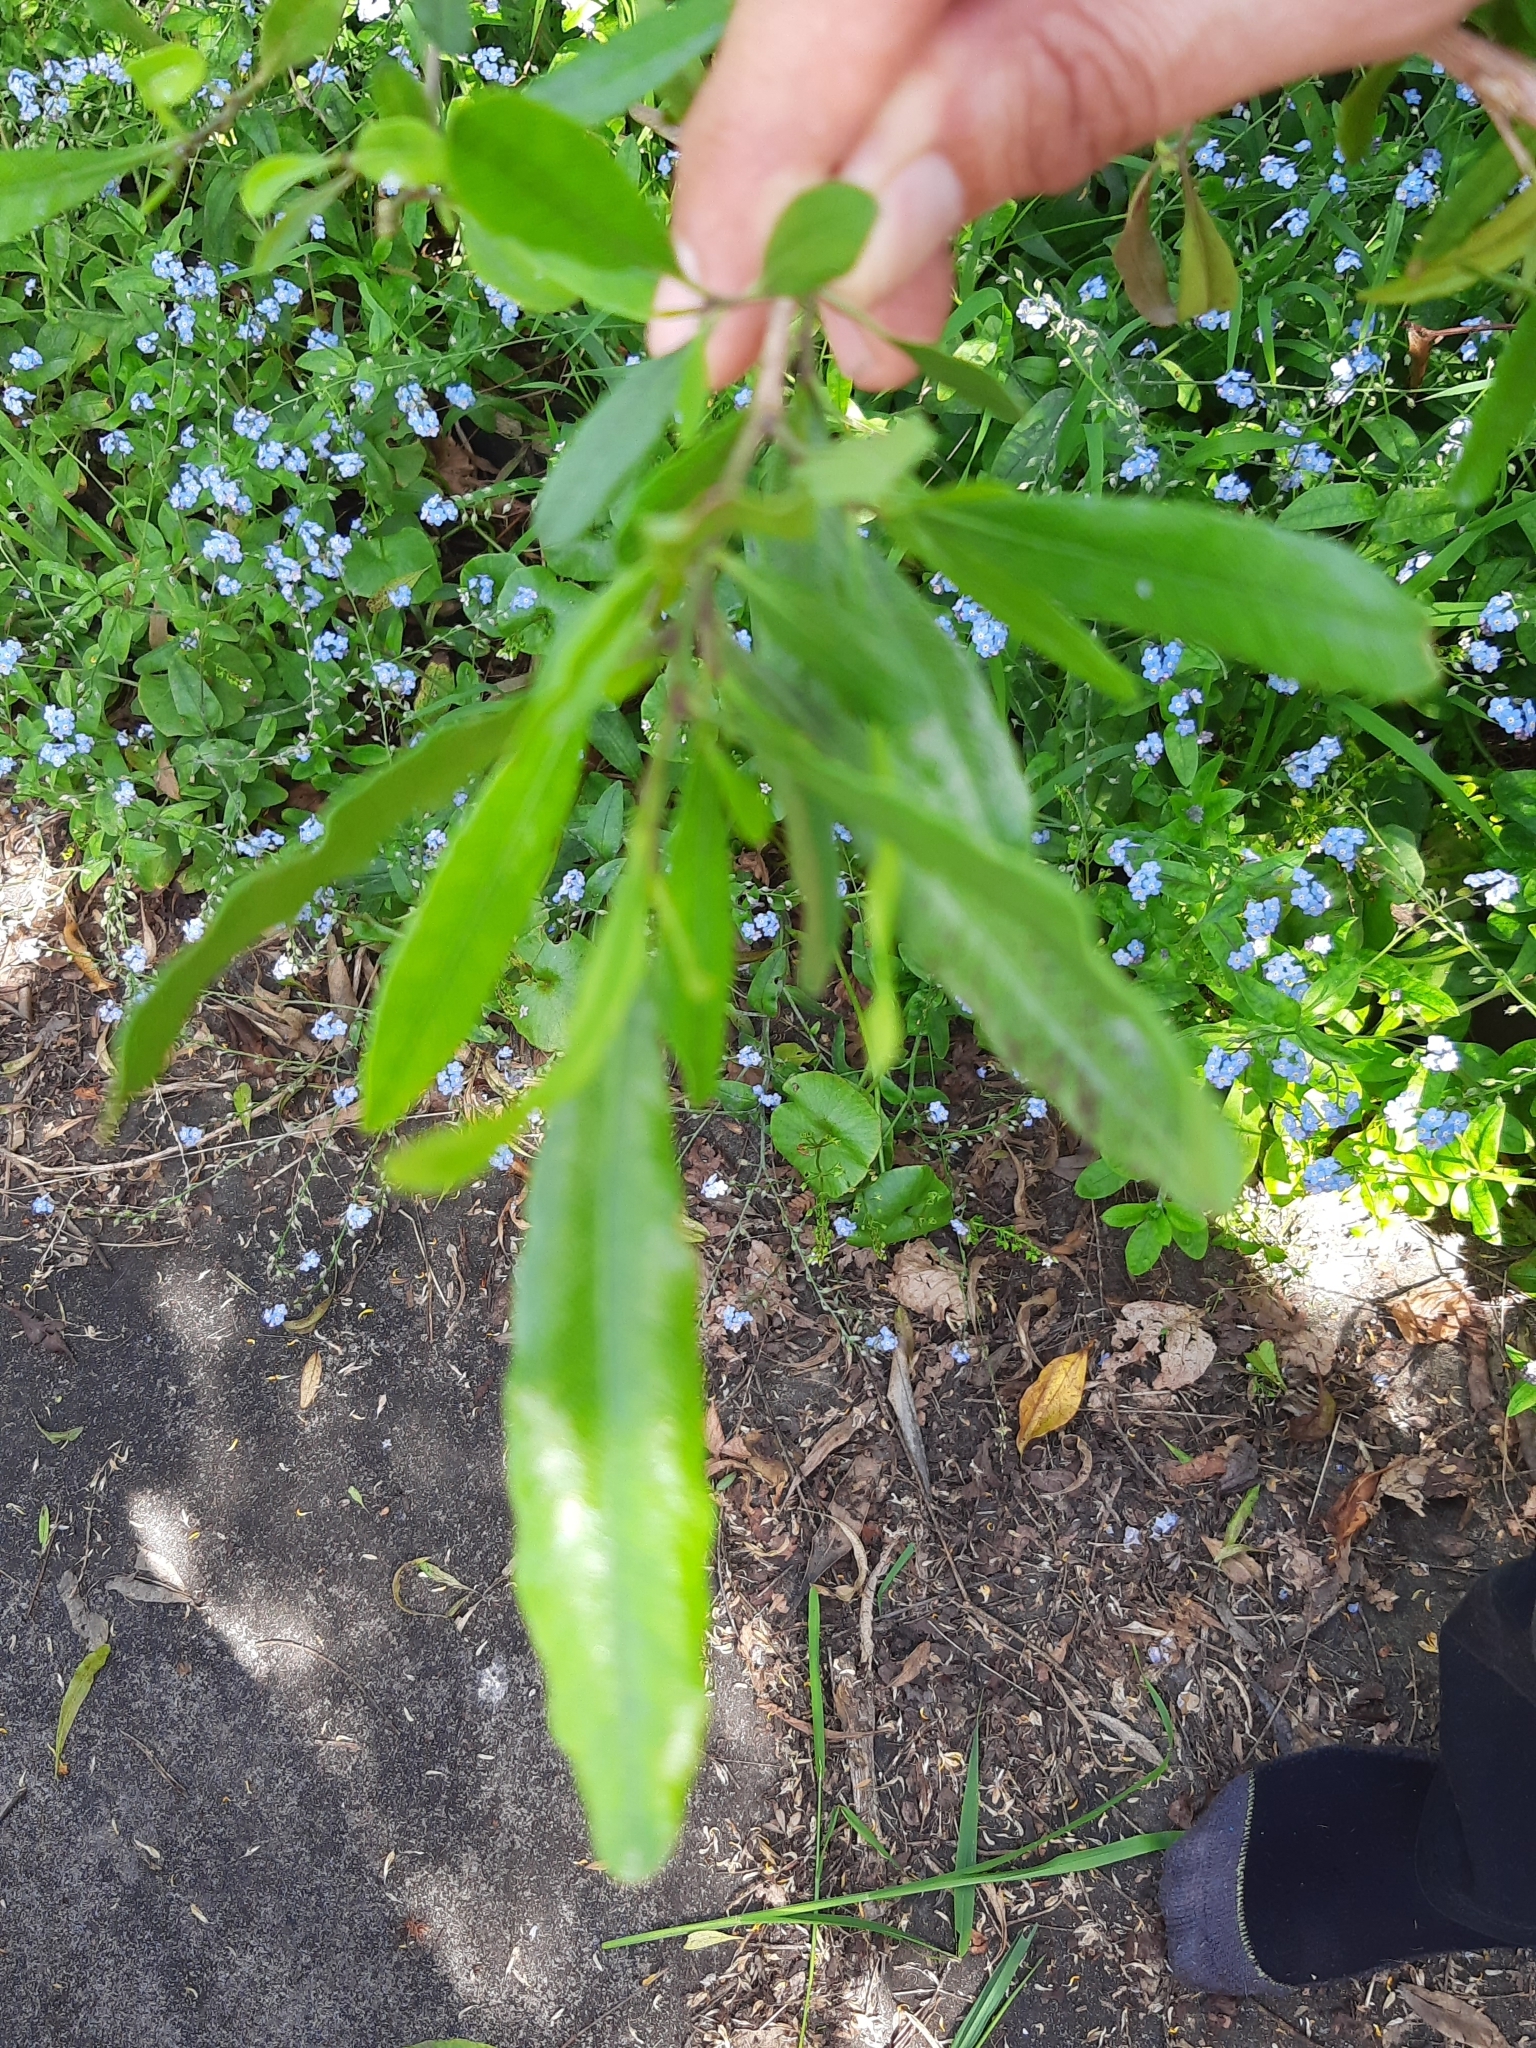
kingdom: Plantae
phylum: Tracheophyta
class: Magnoliopsida
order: Sapindales
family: Sapindaceae
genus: Dodonaea
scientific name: Dodonaea viscosa
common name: Hopbush
